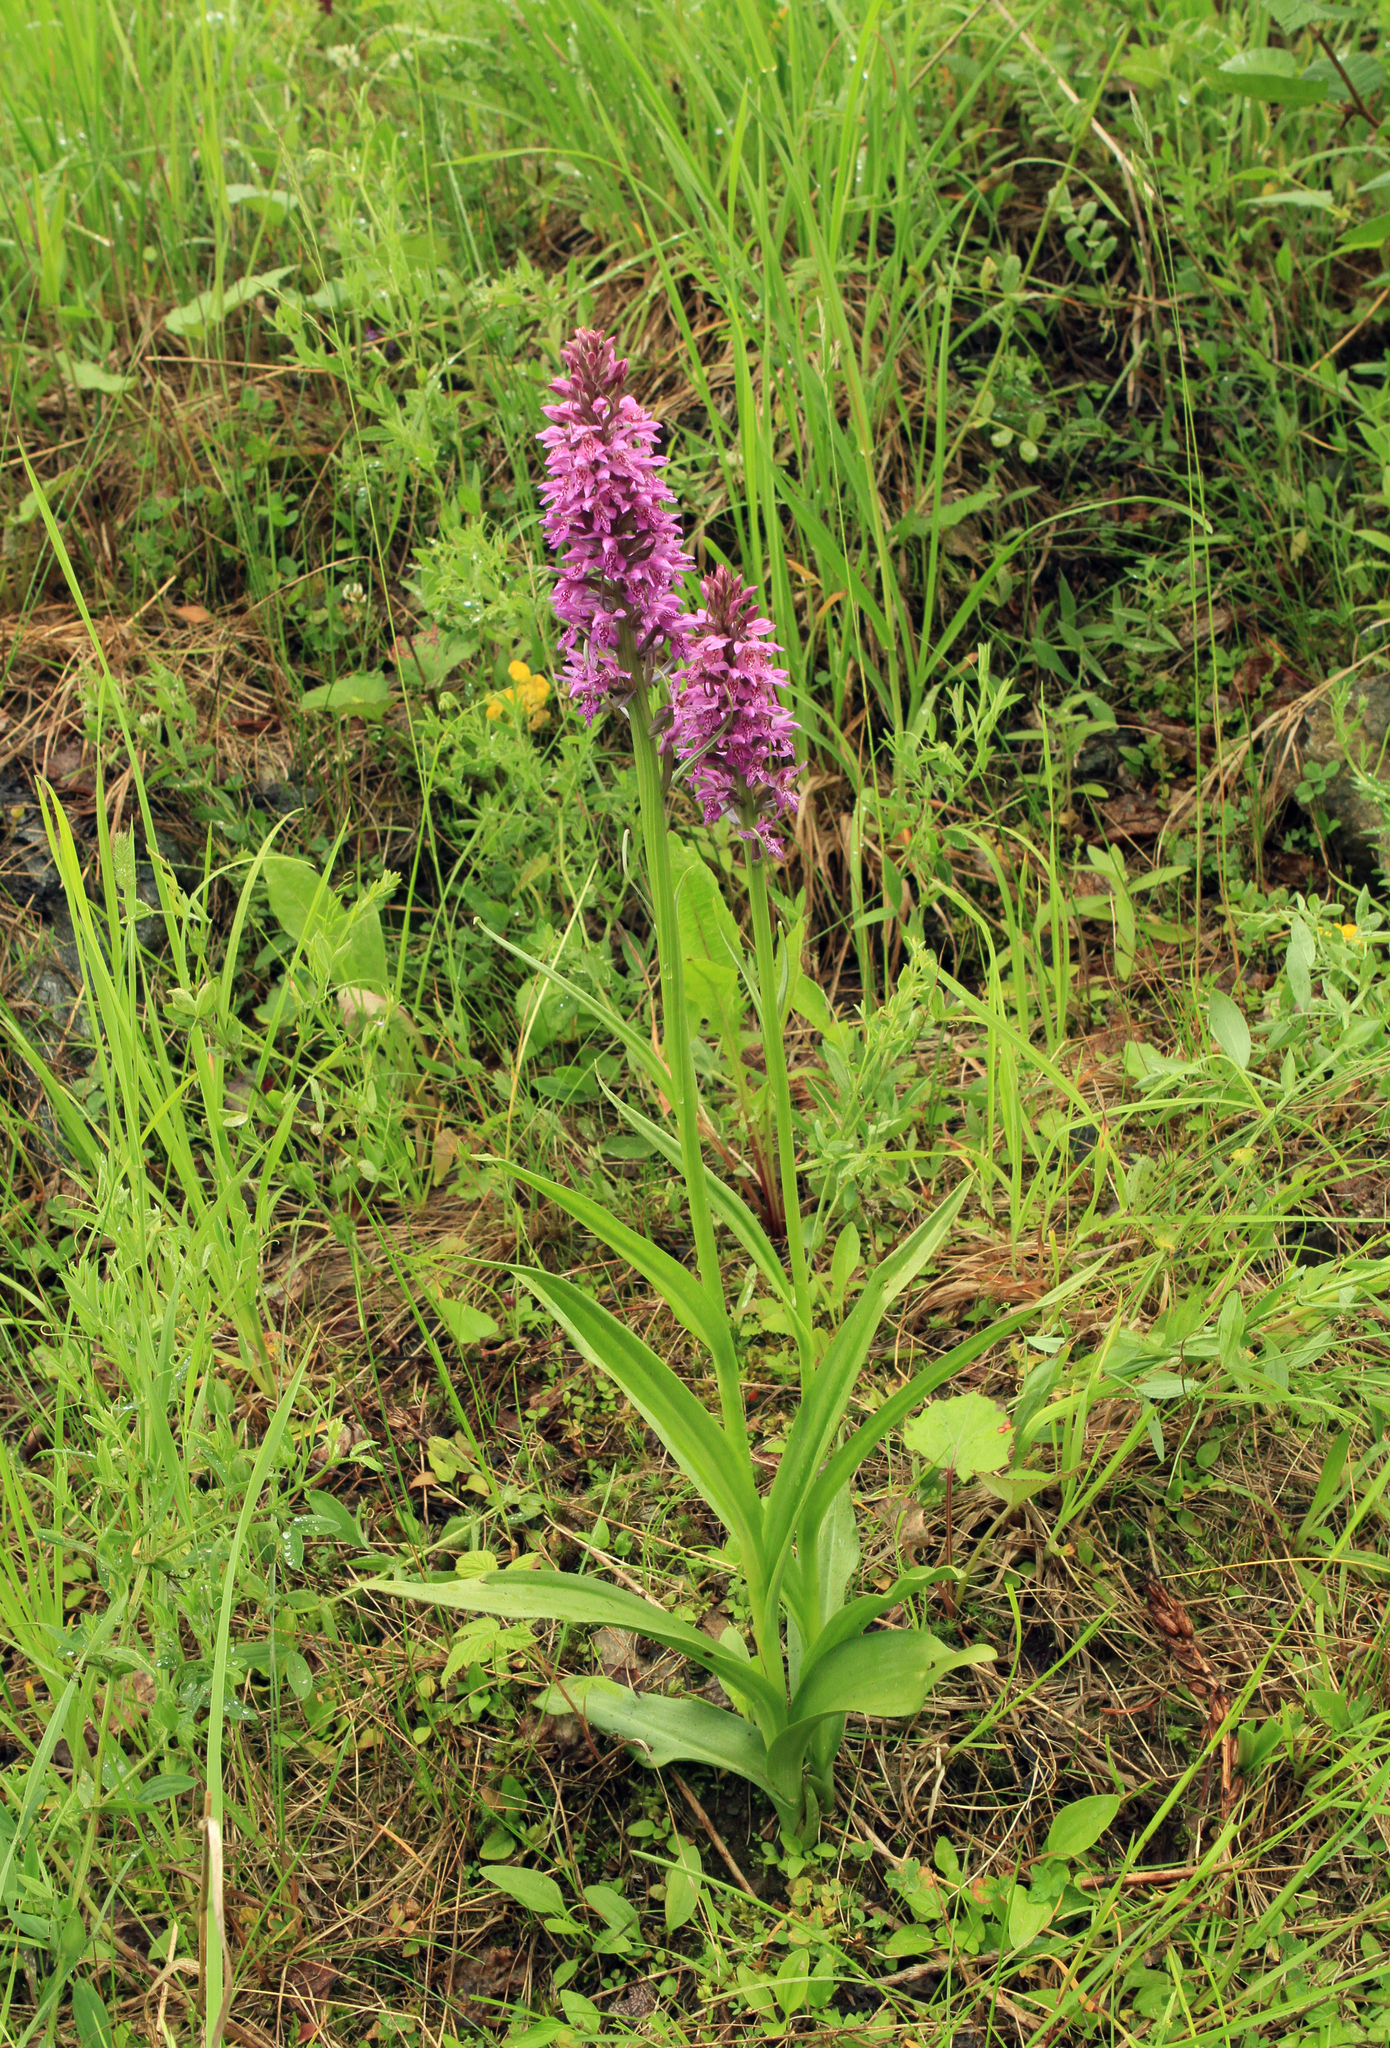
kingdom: Plantae
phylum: Tracheophyta
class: Liliopsida
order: Asparagales
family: Orchidaceae
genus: Dactylorhiza
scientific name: Dactylorhiza sibirica
